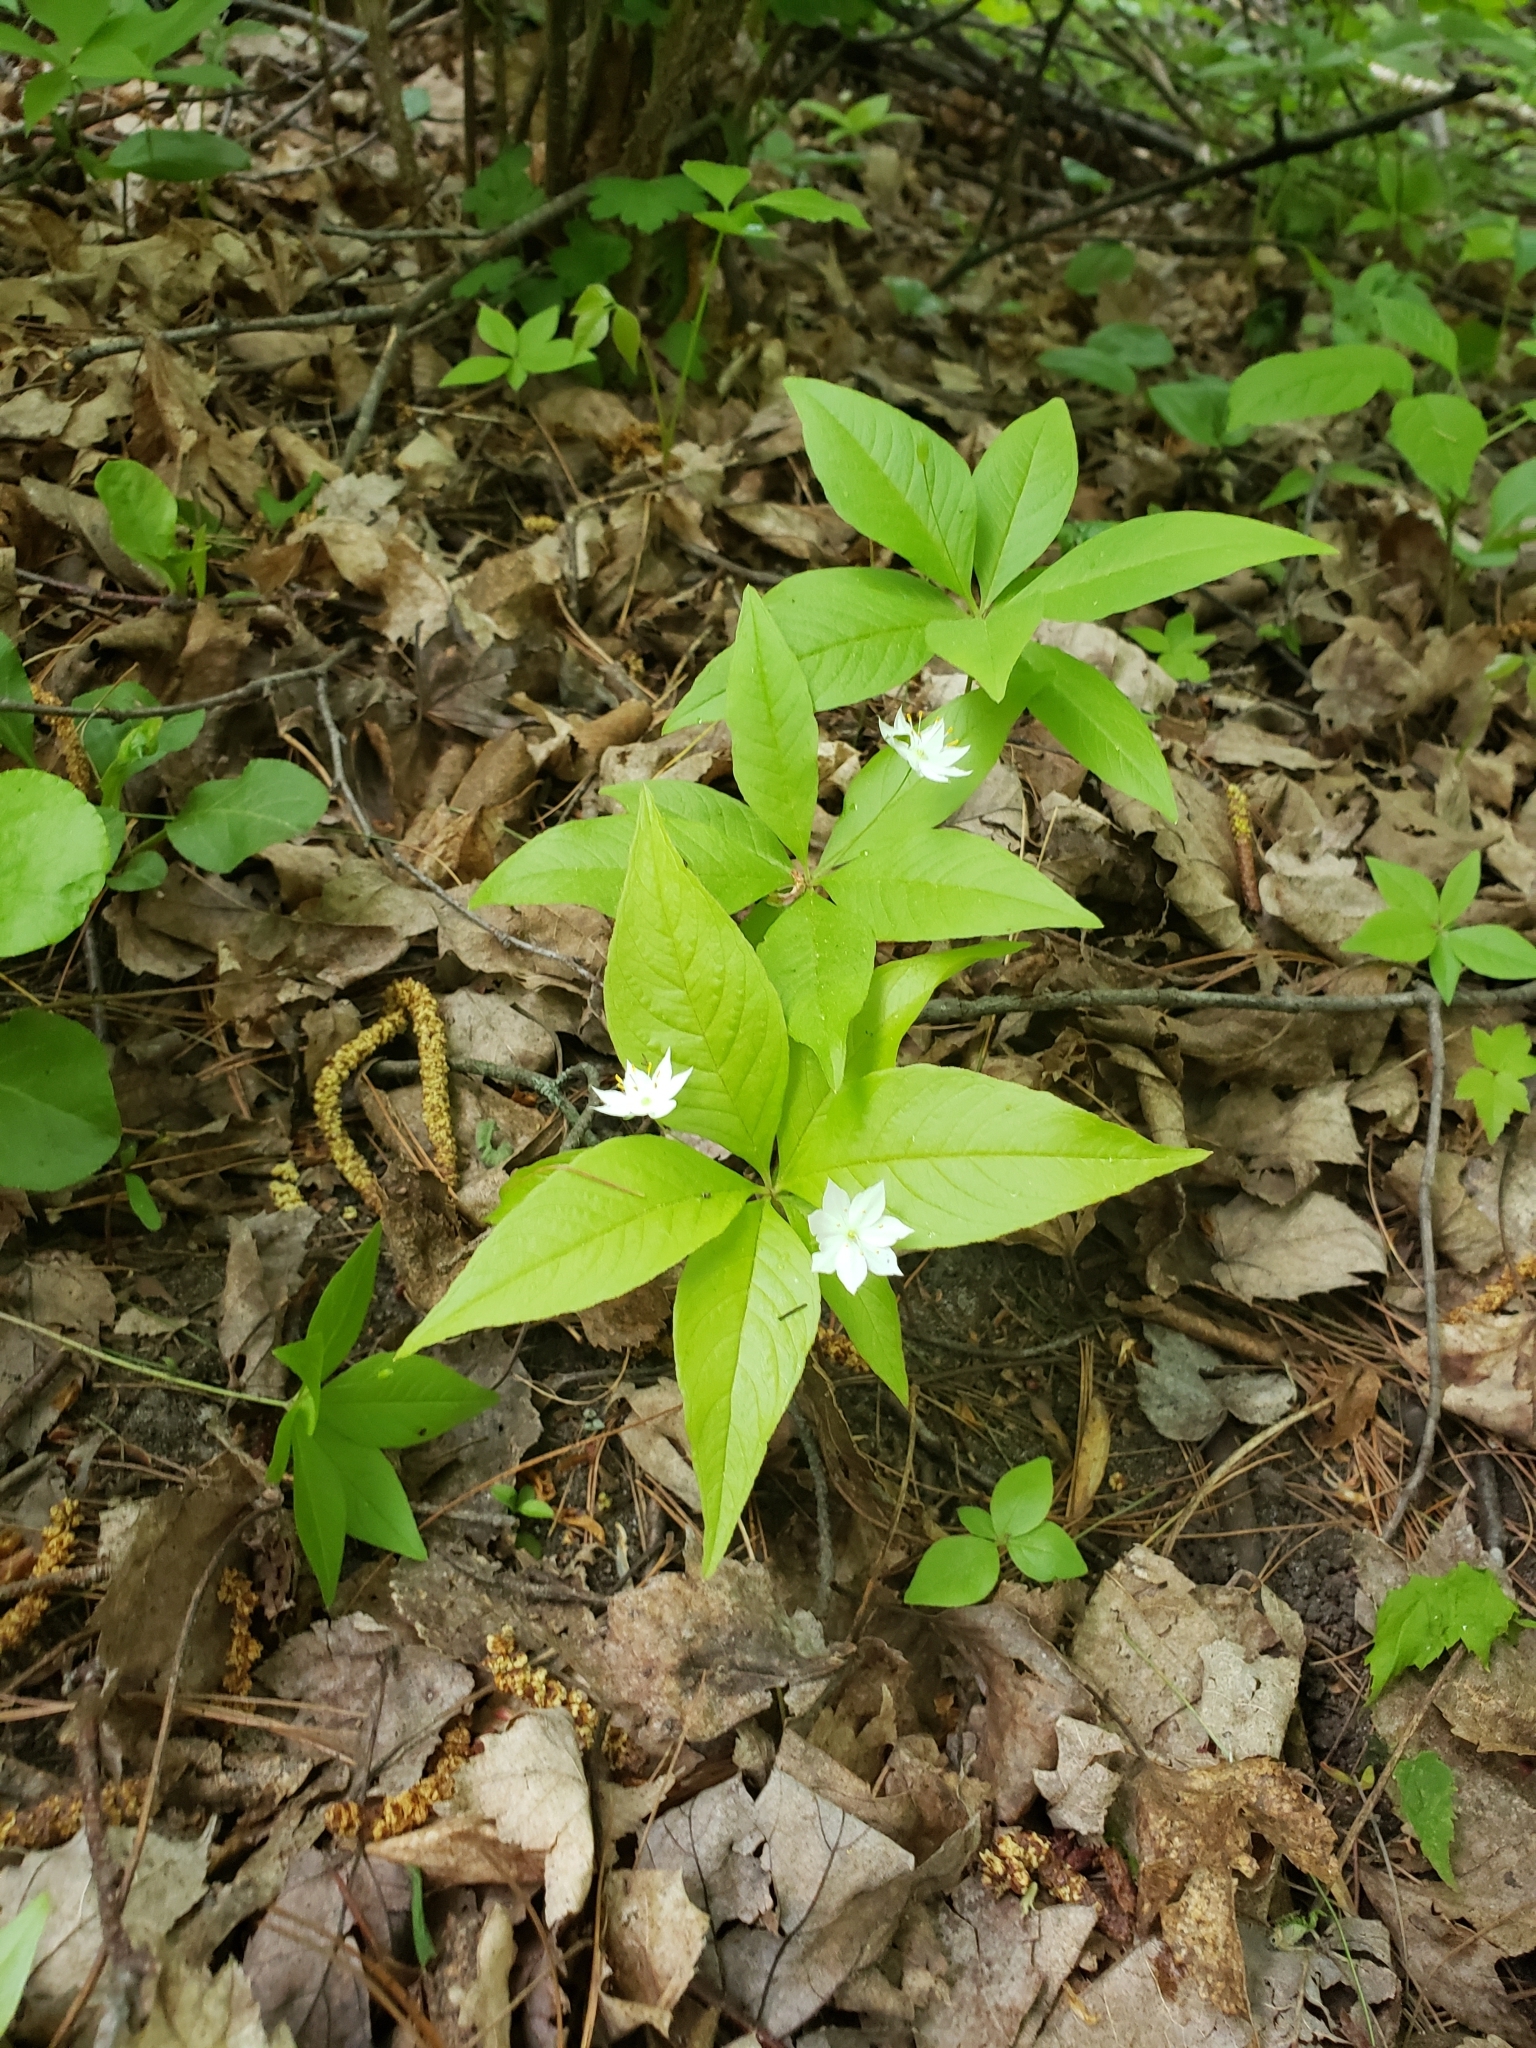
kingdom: Plantae
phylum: Tracheophyta
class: Magnoliopsida
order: Ericales
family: Primulaceae
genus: Lysimachia
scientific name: Lysimachia borealis
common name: American starflower
